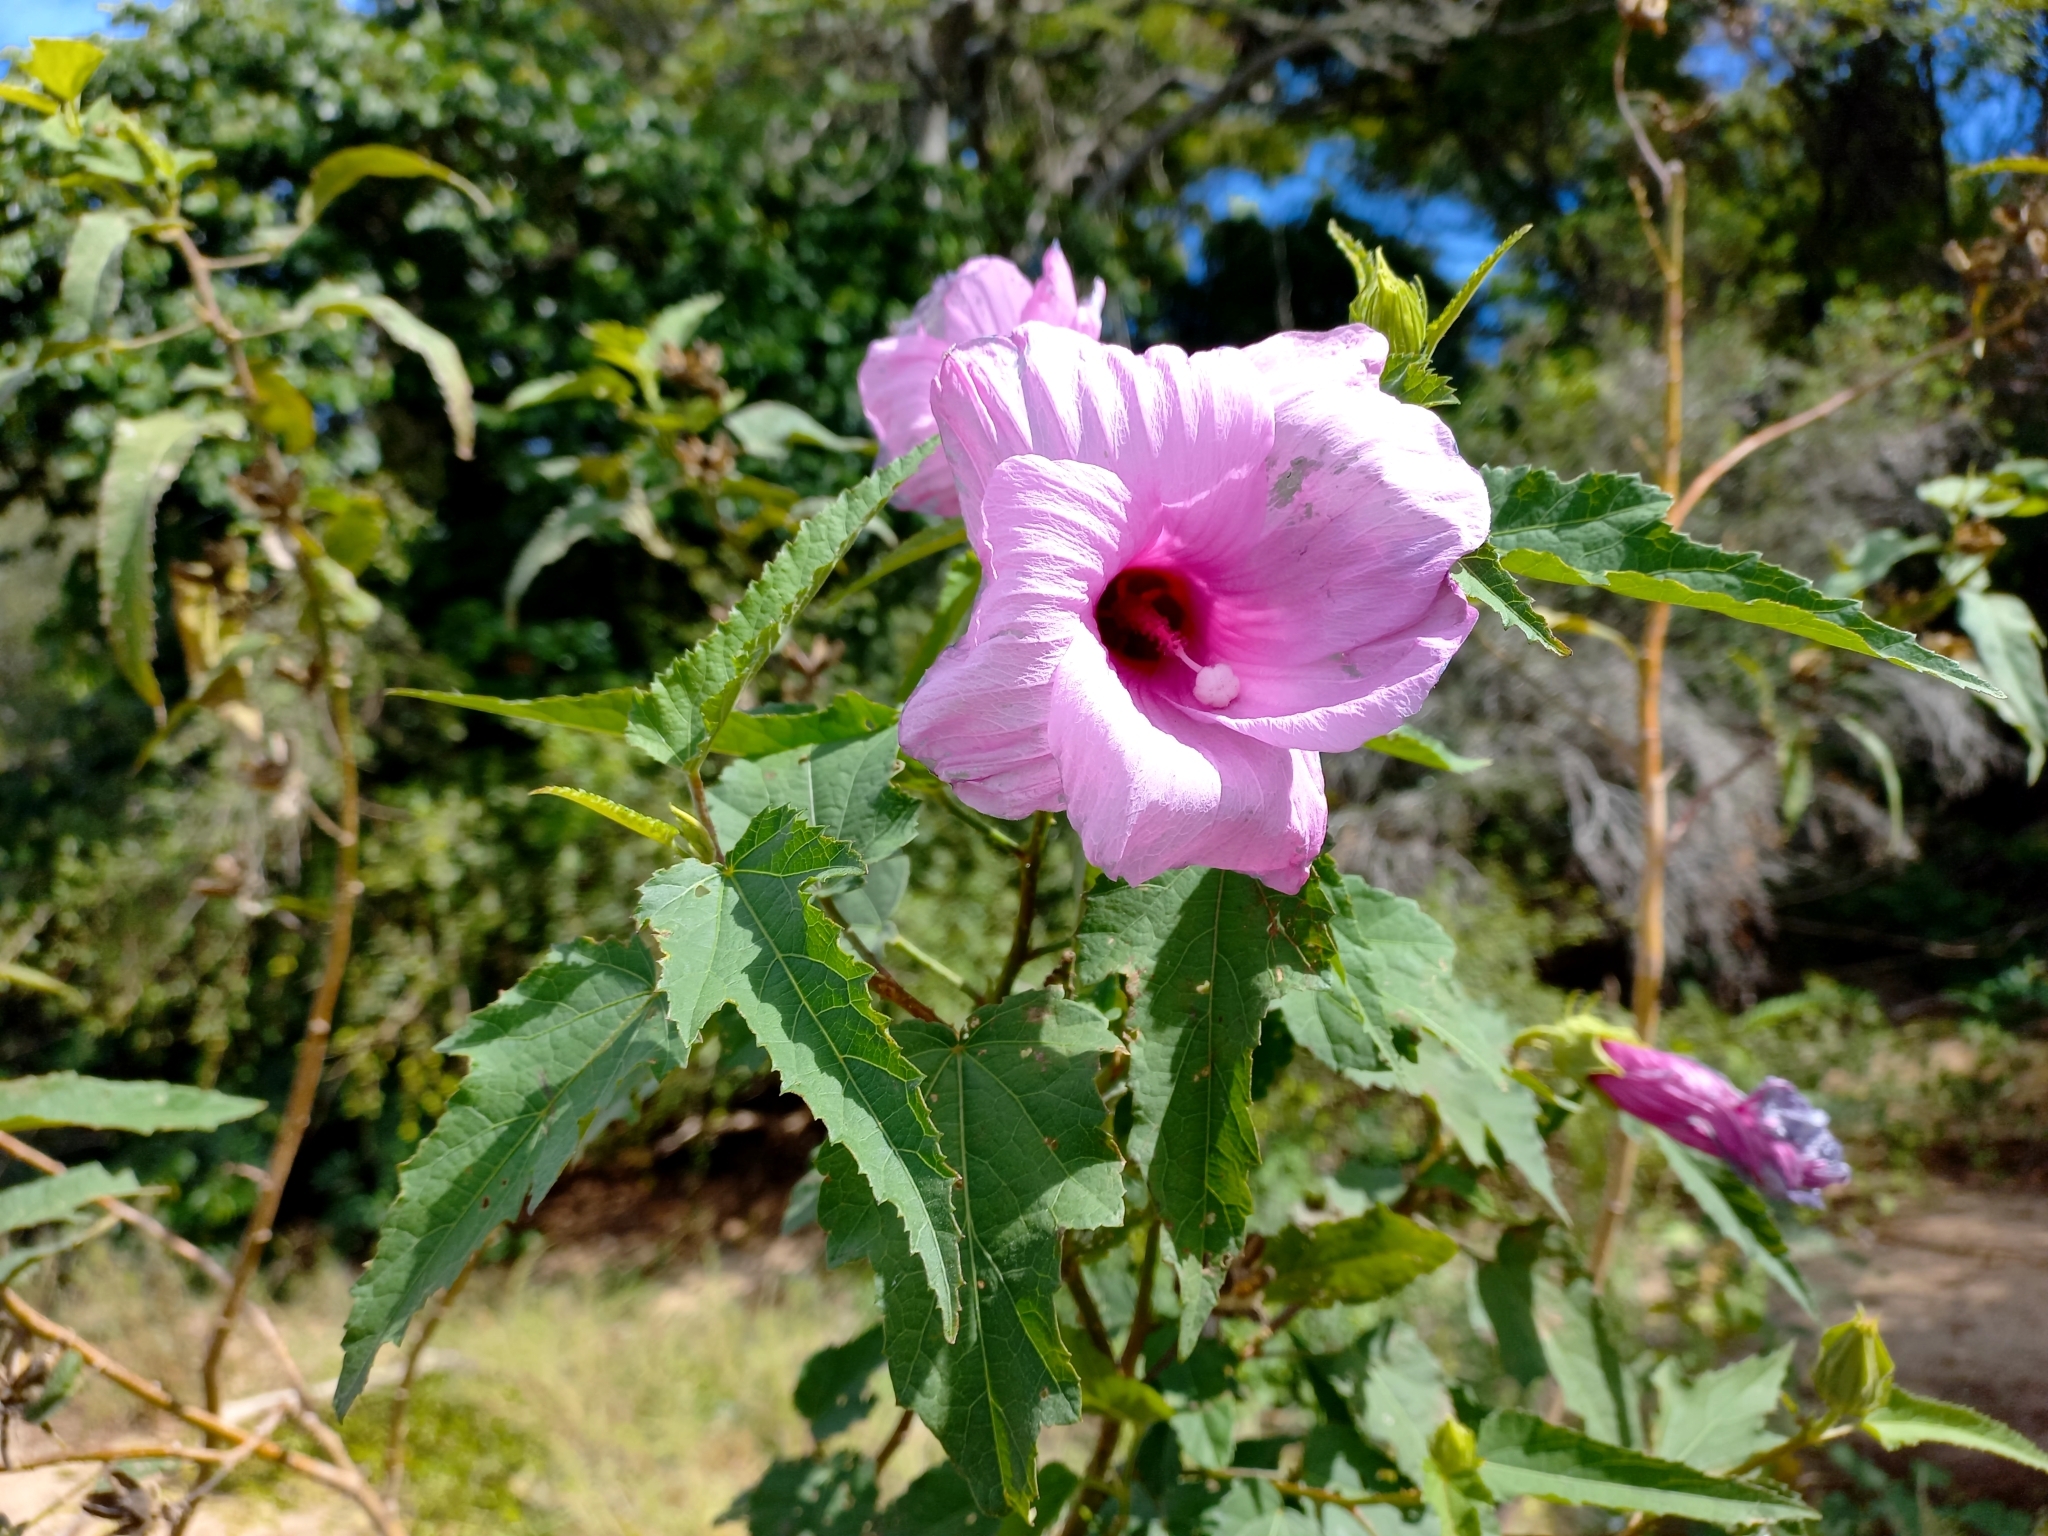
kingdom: Plantae
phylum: Tracheophyta
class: Magnoliopsida
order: Malvales
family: Malvaceae
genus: Hibiscus
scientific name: Hibiscus striatus
